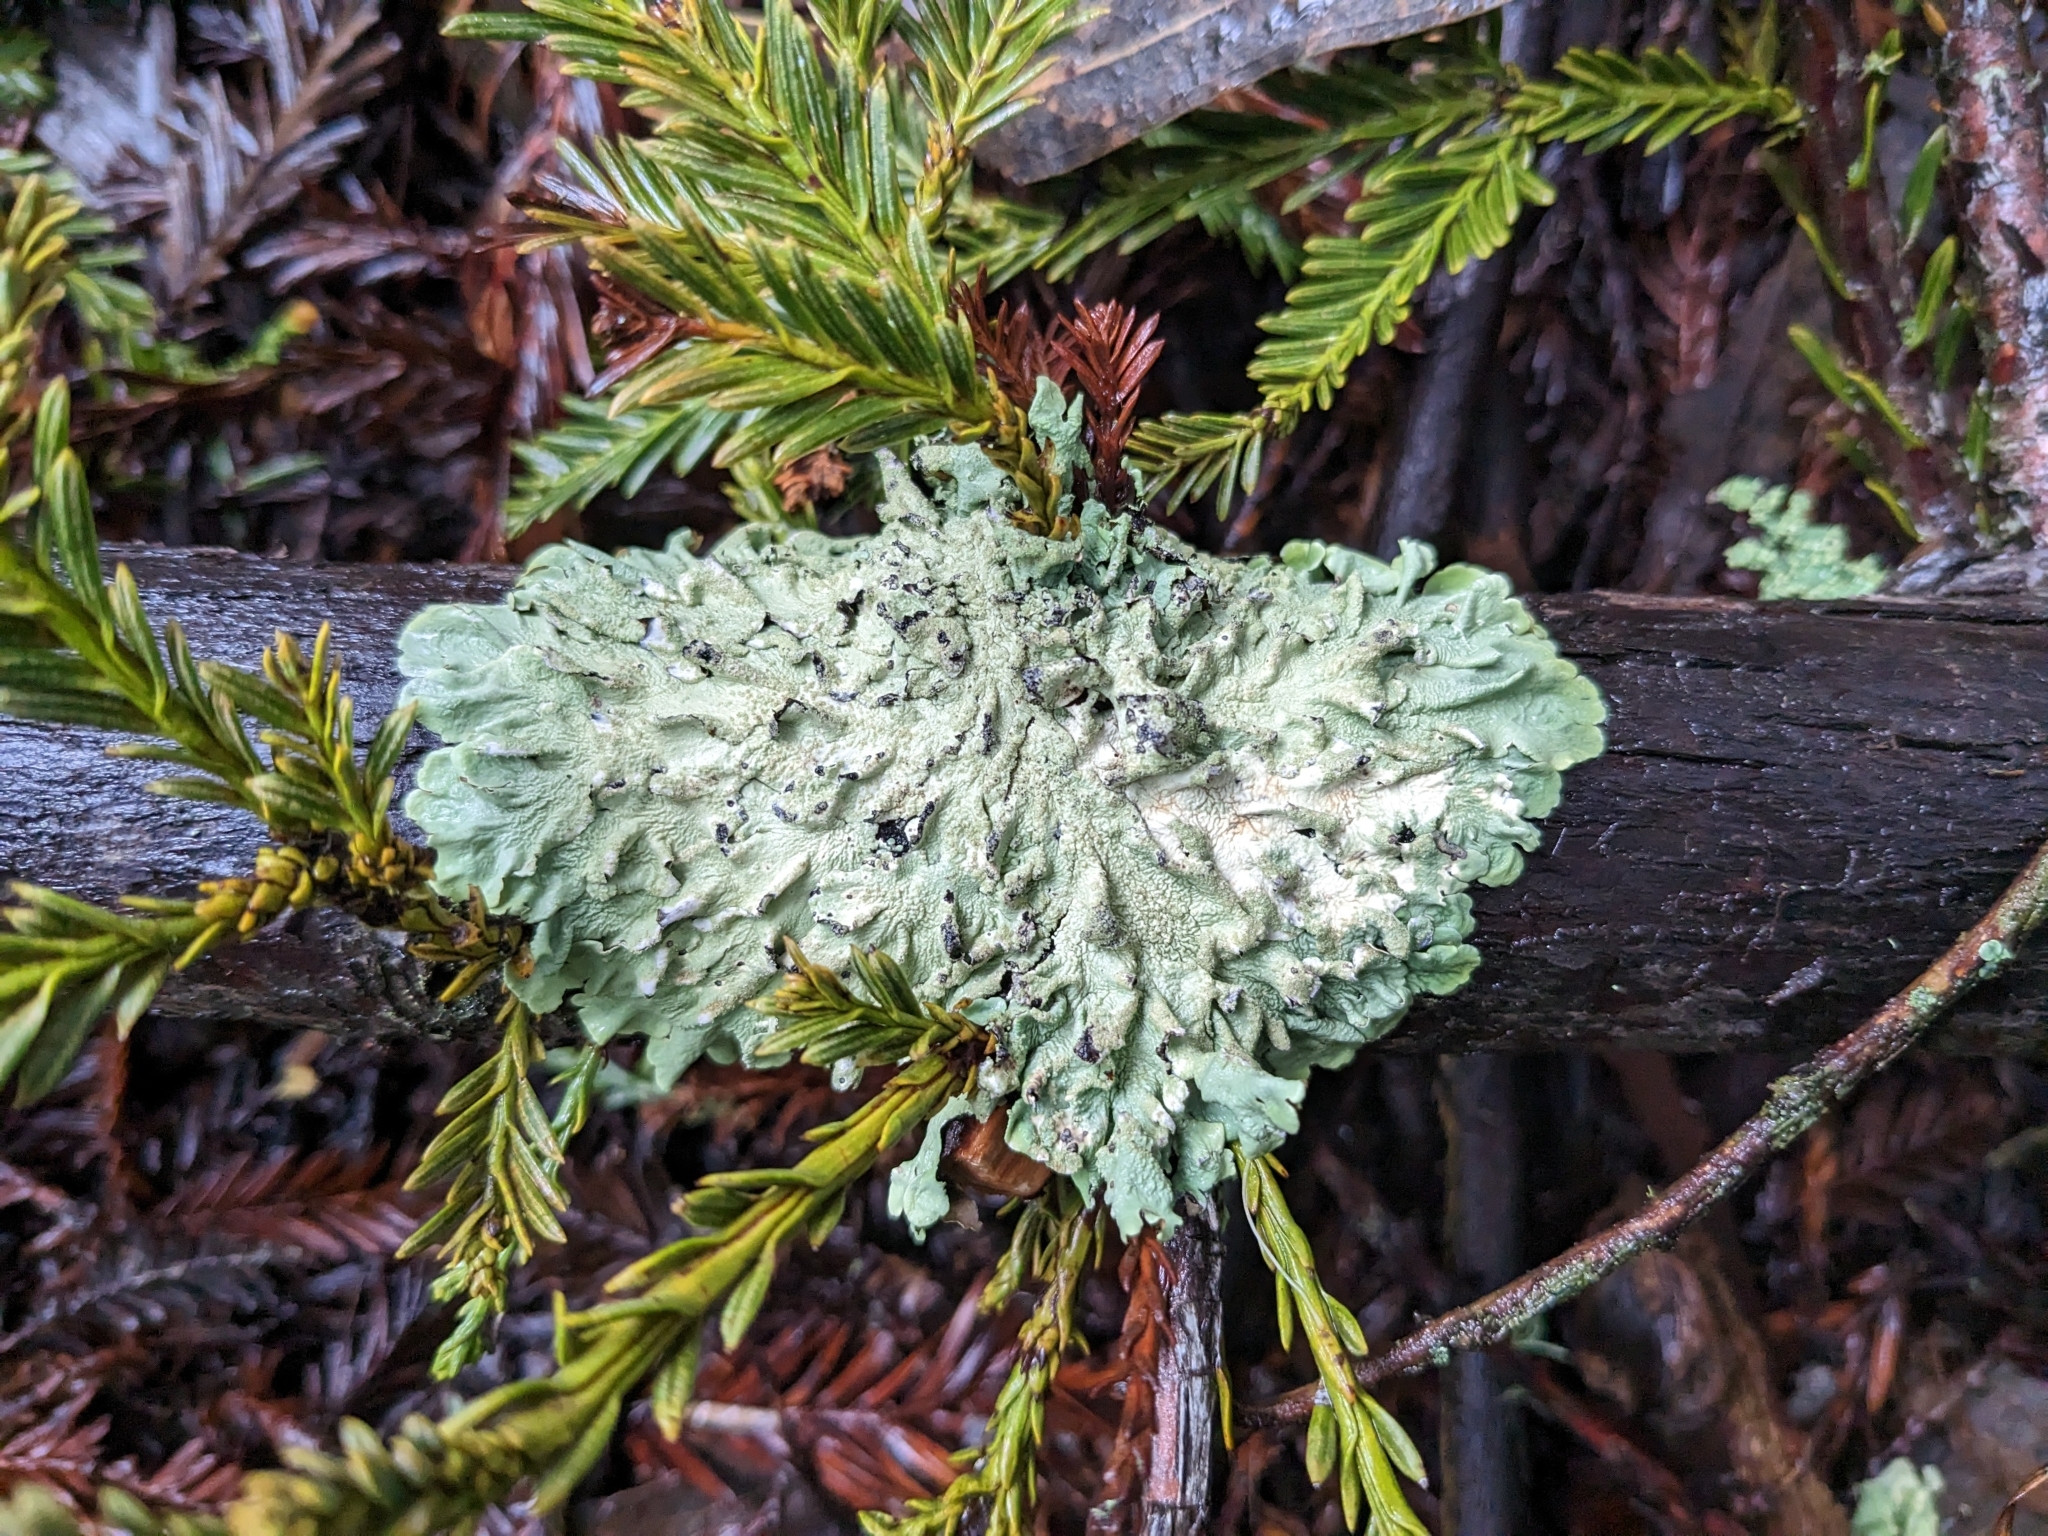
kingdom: Fungi
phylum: Ascomycota
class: Lecanoromycetes
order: Lecanorales
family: Parmeliaceae
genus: Flavoparmelia
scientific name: Flavoparmelia caperata
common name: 40-mile per hour lichen
